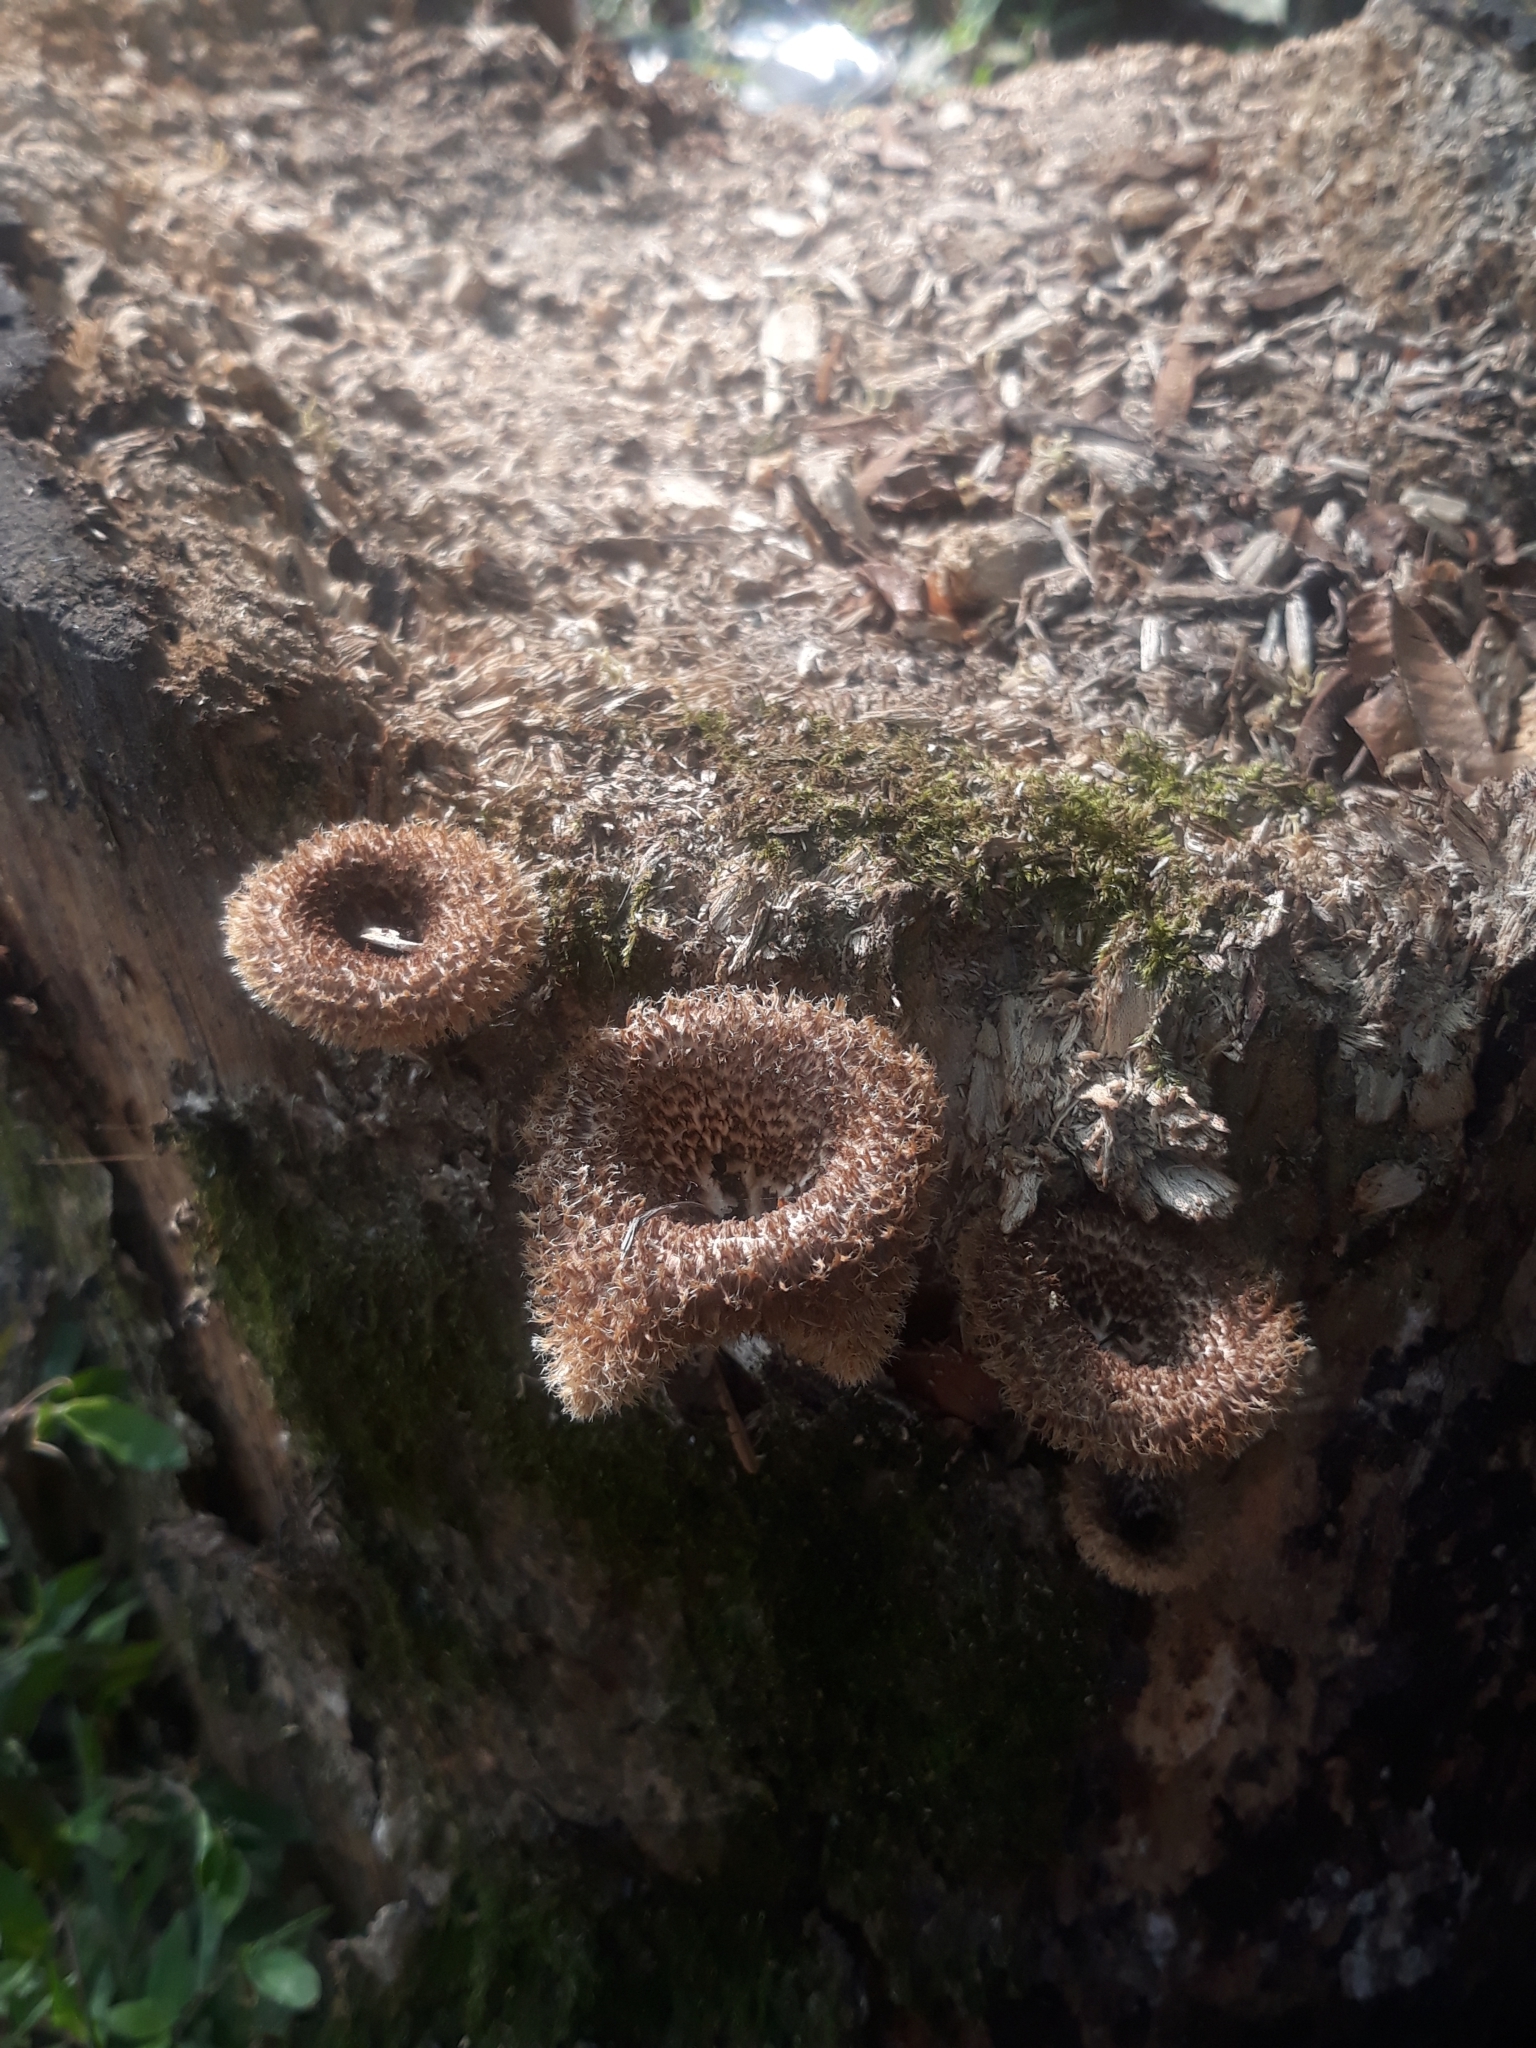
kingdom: Fungi
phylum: Basidiomycota
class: Agaricomycetes
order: Polyporales
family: Polyporaceae
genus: Lentinus
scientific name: Lentinus crinitus
